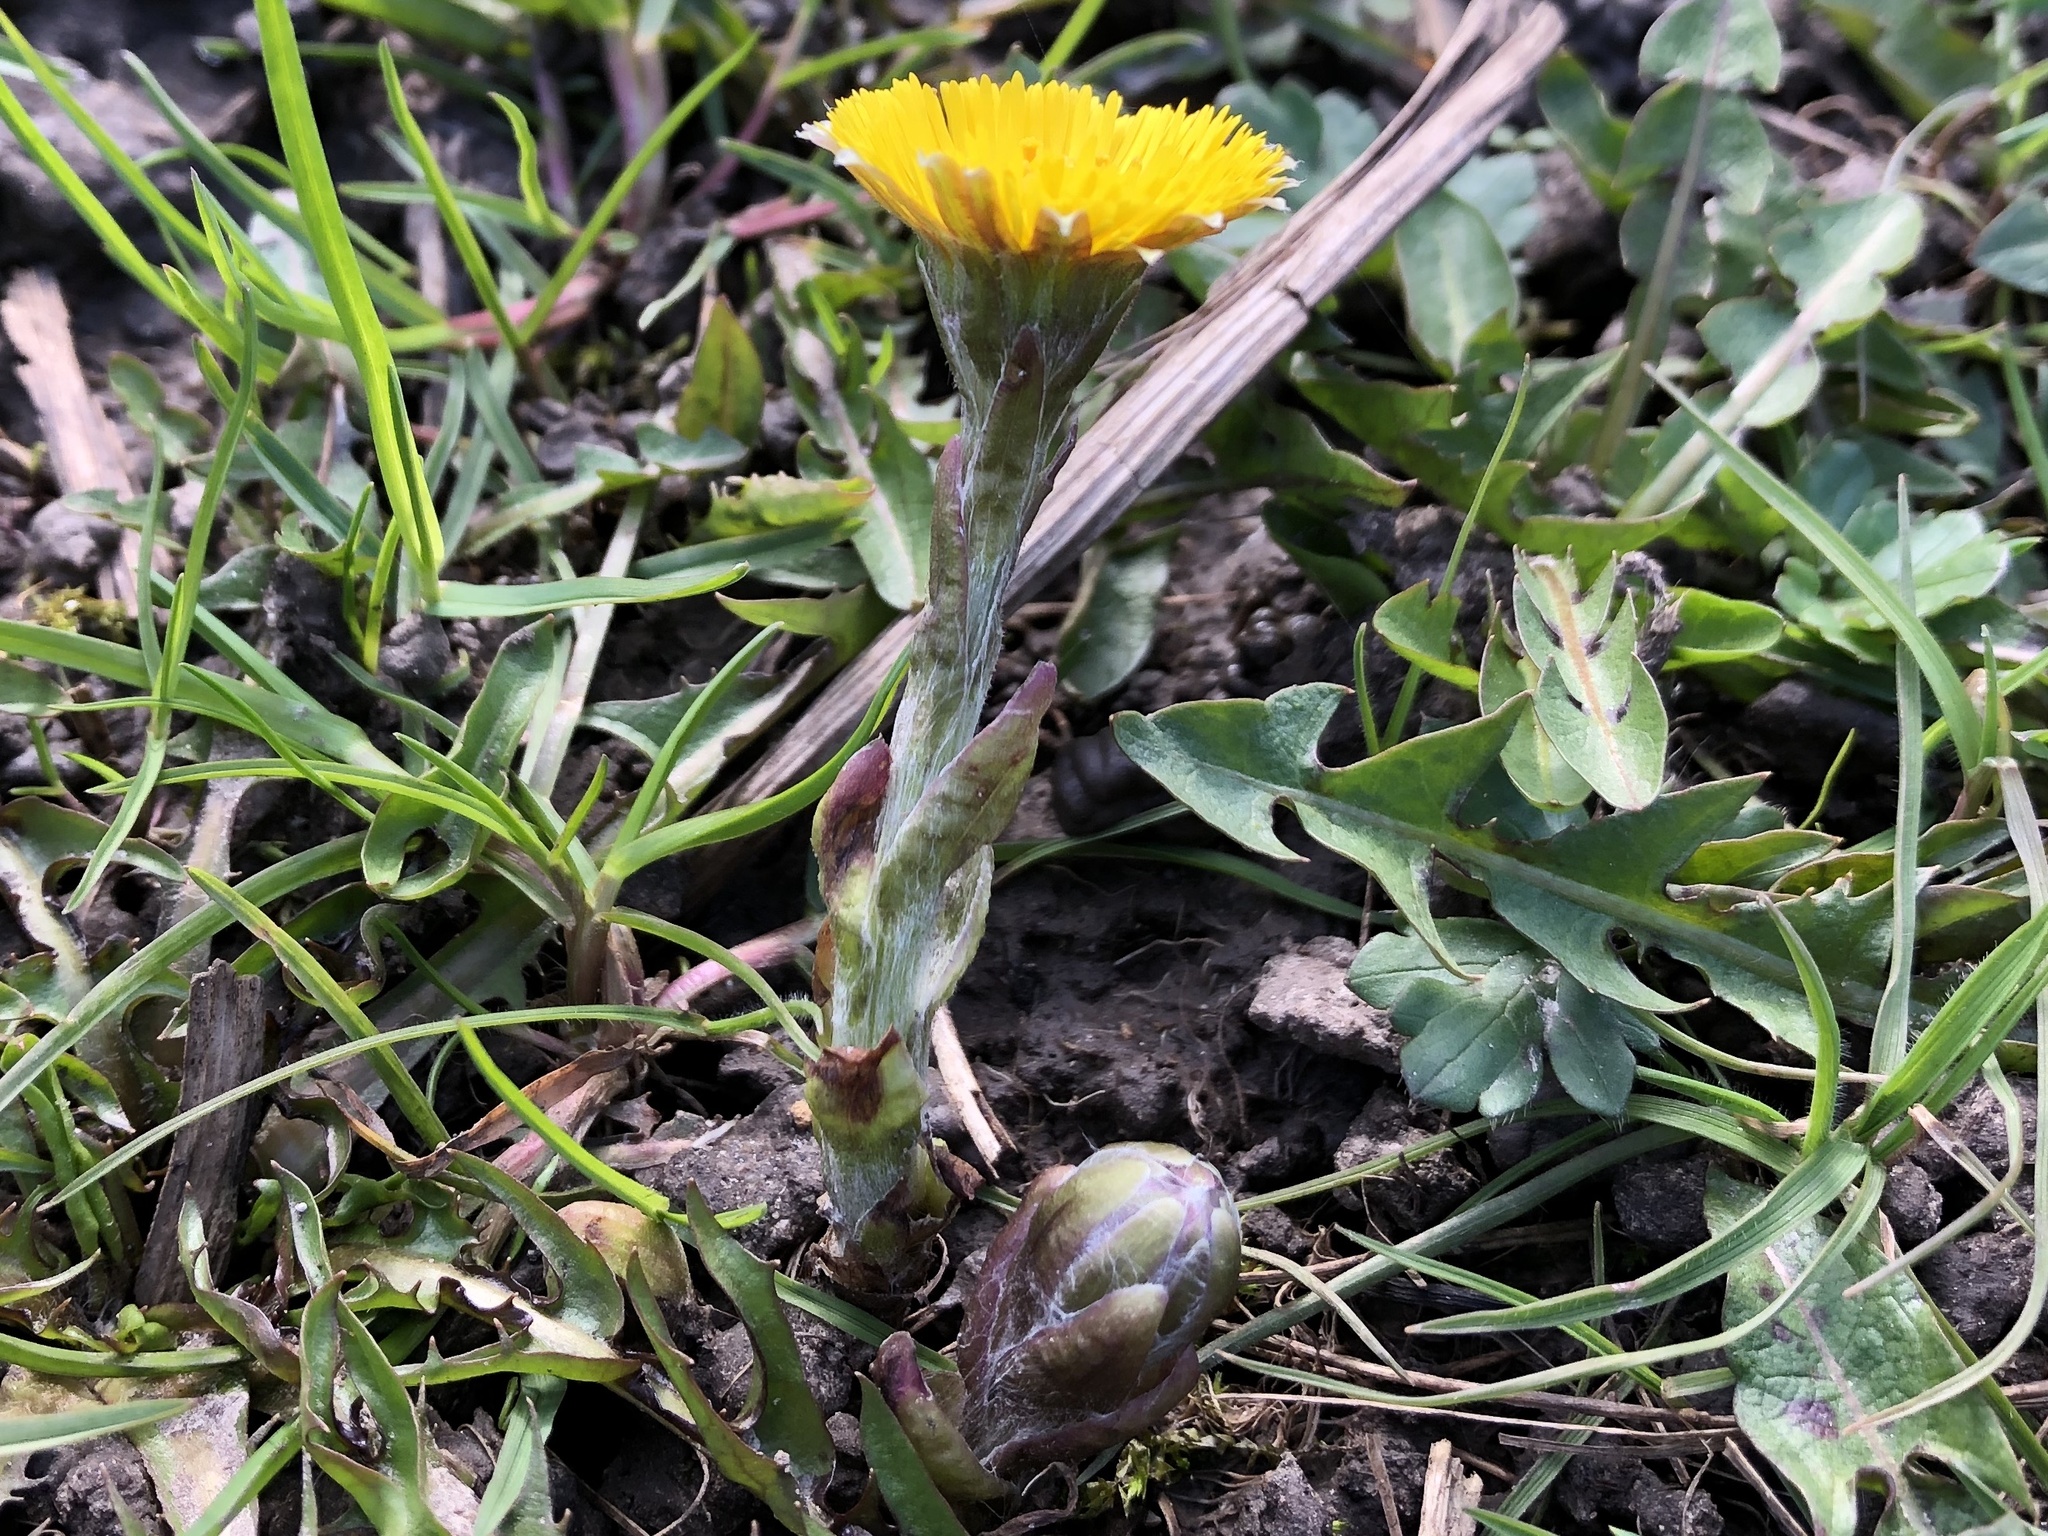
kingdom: Plantae
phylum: Tracheophyta
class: Magnoliopsida
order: Asterales
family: Asteraceae
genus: Tussilago
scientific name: Tussilago farfara
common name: Coltsfoot
